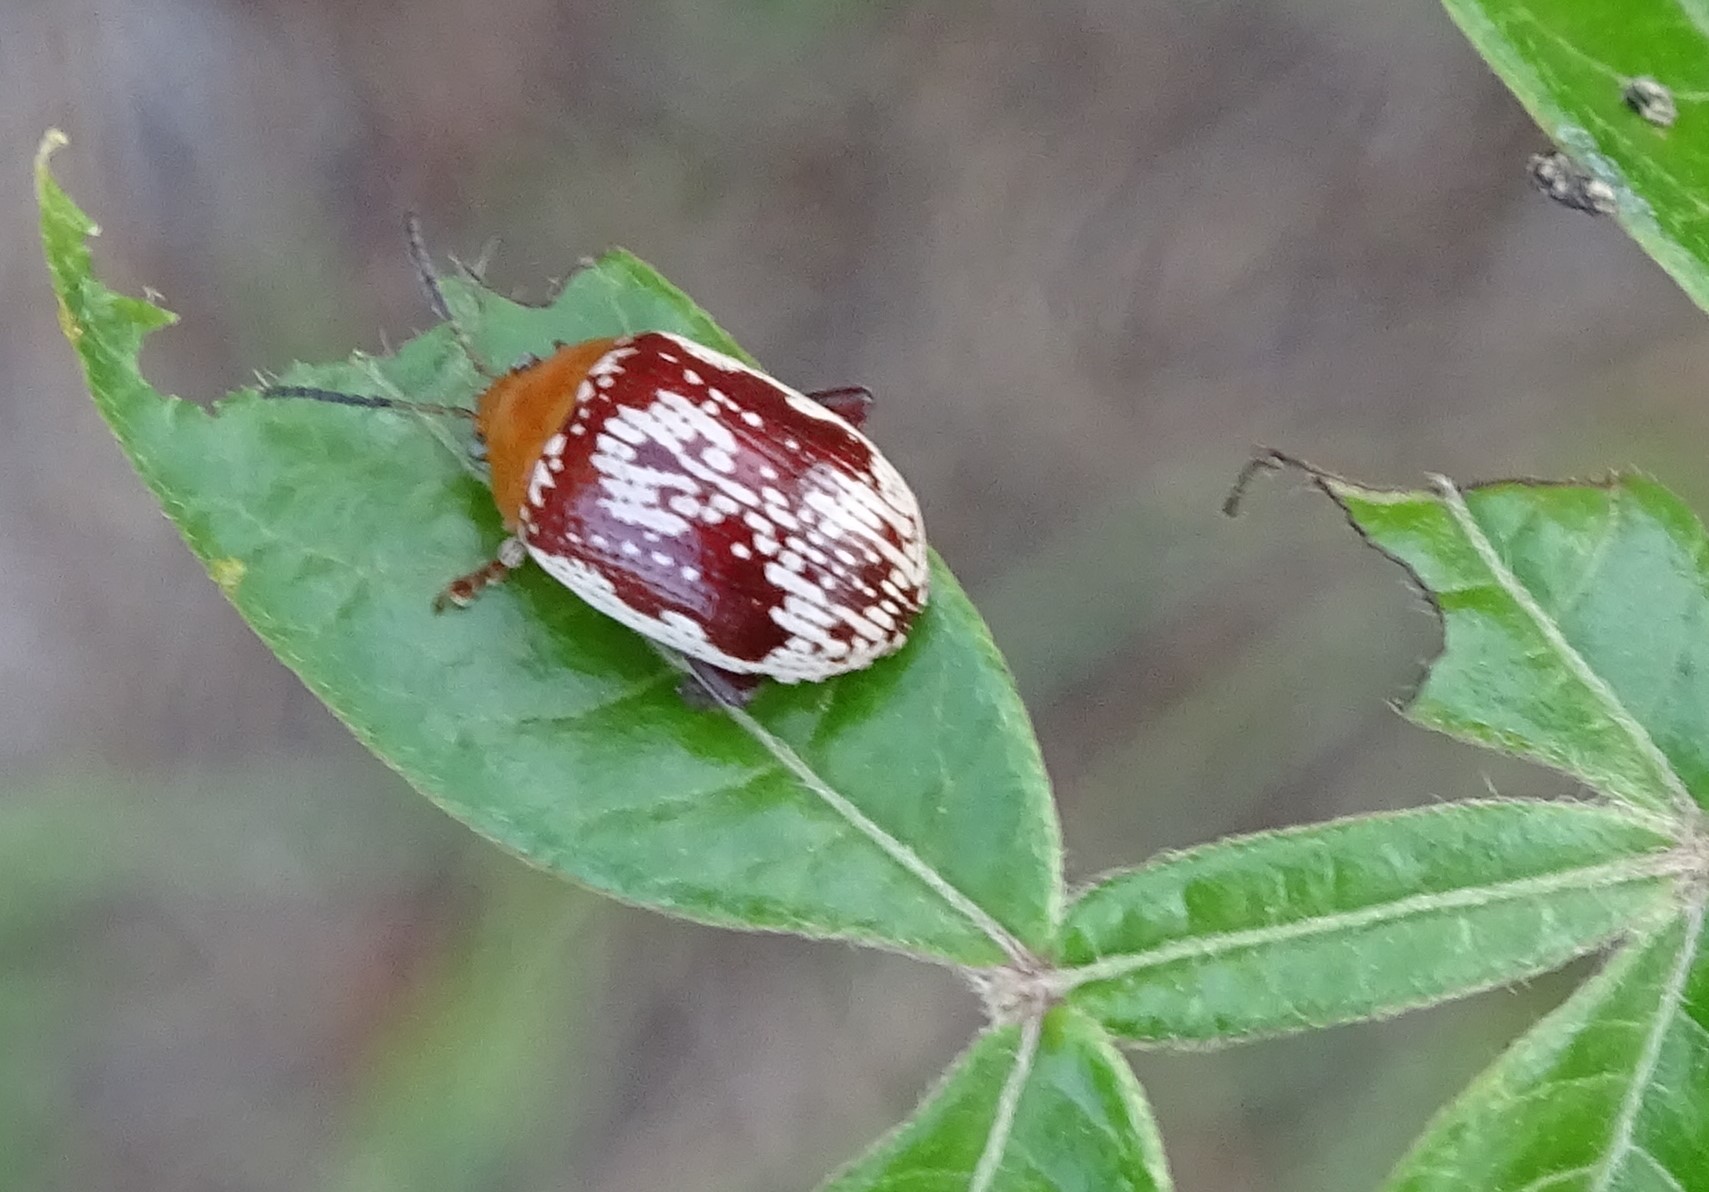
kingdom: Animalia
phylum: Arthropoda
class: Insecta
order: Coleoptera
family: Chrysomelidae
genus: Blepharida
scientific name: Blepharida rhois
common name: Sumac flea beetle
